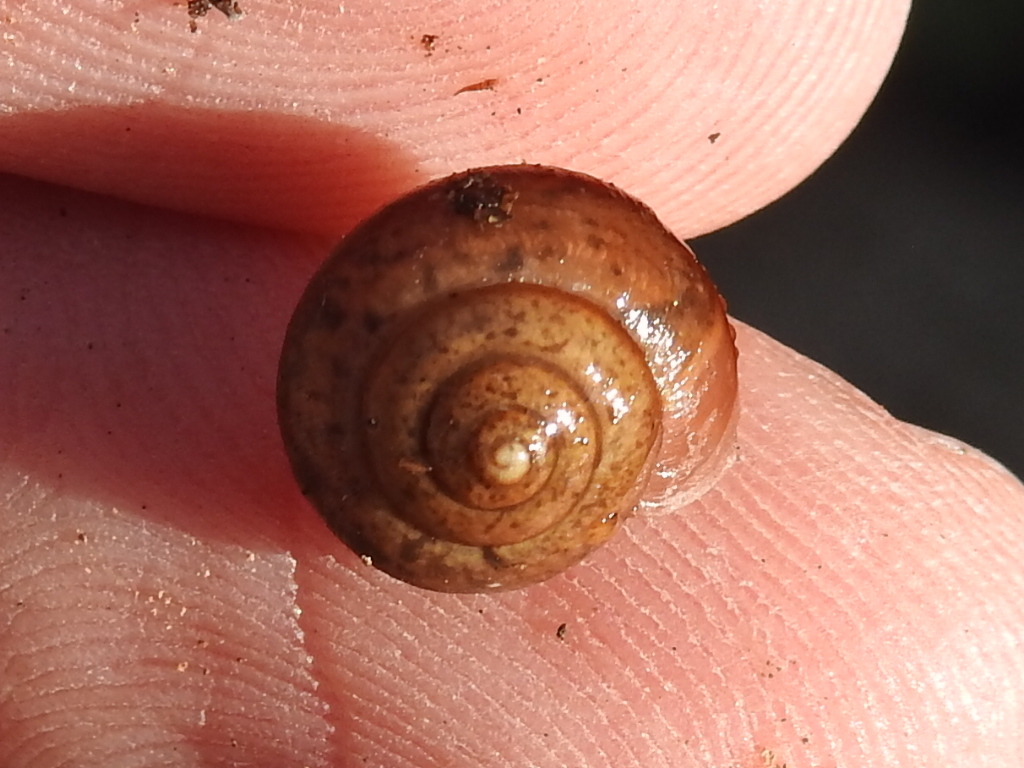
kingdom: Animalia
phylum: Mollusca
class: Gastropoda
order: Stylommatophora
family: Camaenidae
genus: Bradybaena
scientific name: Bradybaena similaris
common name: Asian trampsnail
